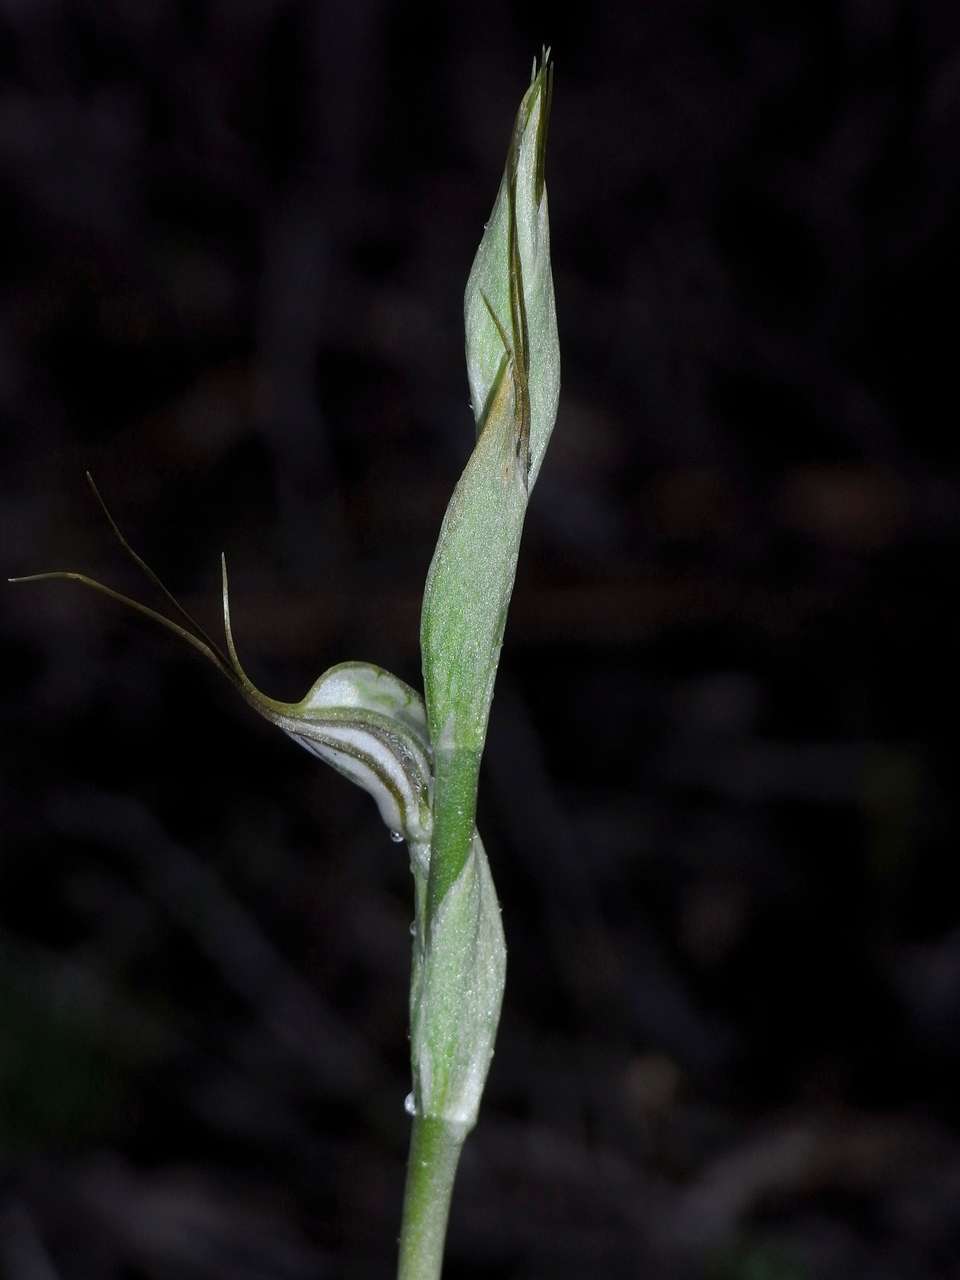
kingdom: Plantae
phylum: Tracheophyta
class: Liliopsida
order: Asparagales
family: Orchidaceae
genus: Pterostylis
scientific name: Pterostylis biseta
